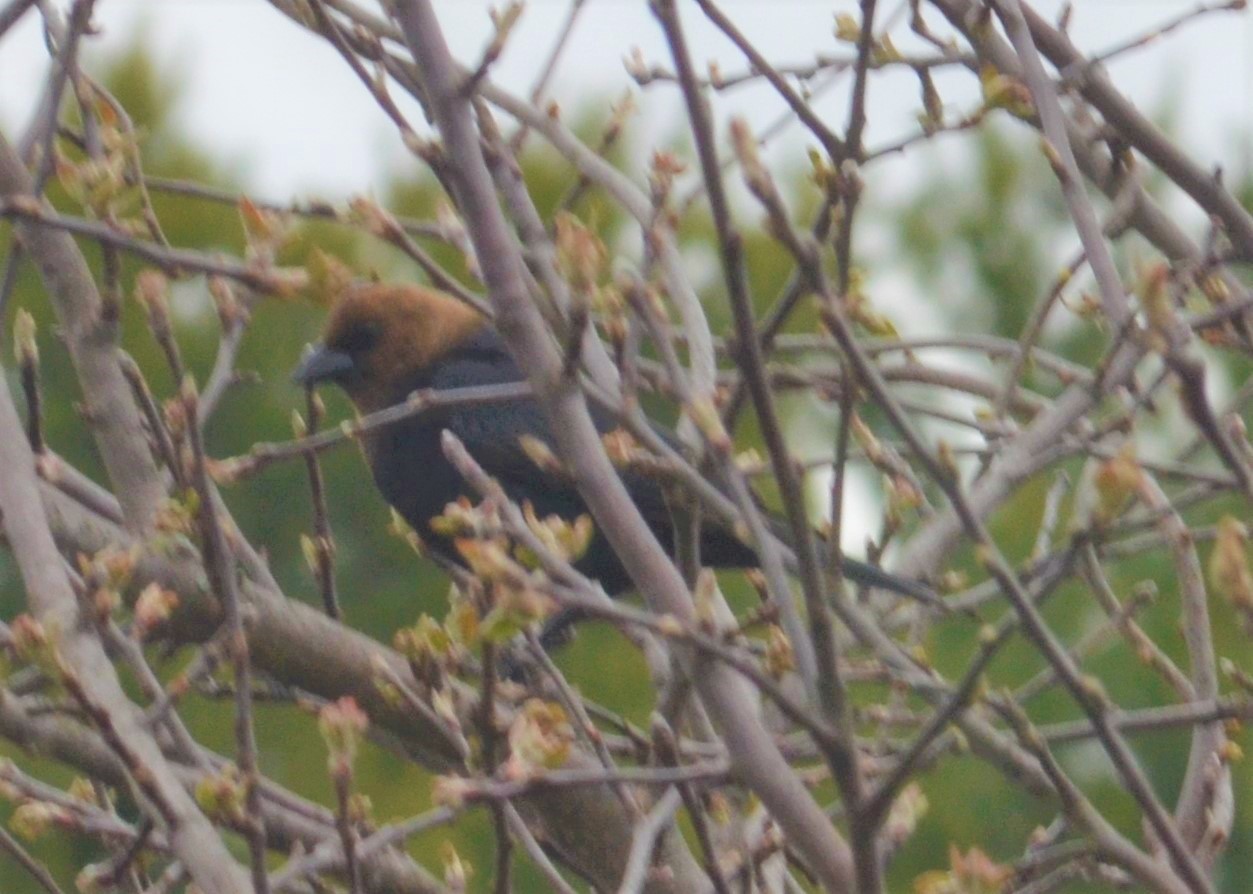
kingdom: Animalia
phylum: Chordata
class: Aves
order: Passeriformes
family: Icteridae
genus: Molothrus
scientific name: Molothrus ater
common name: Brown-headed cowbird
